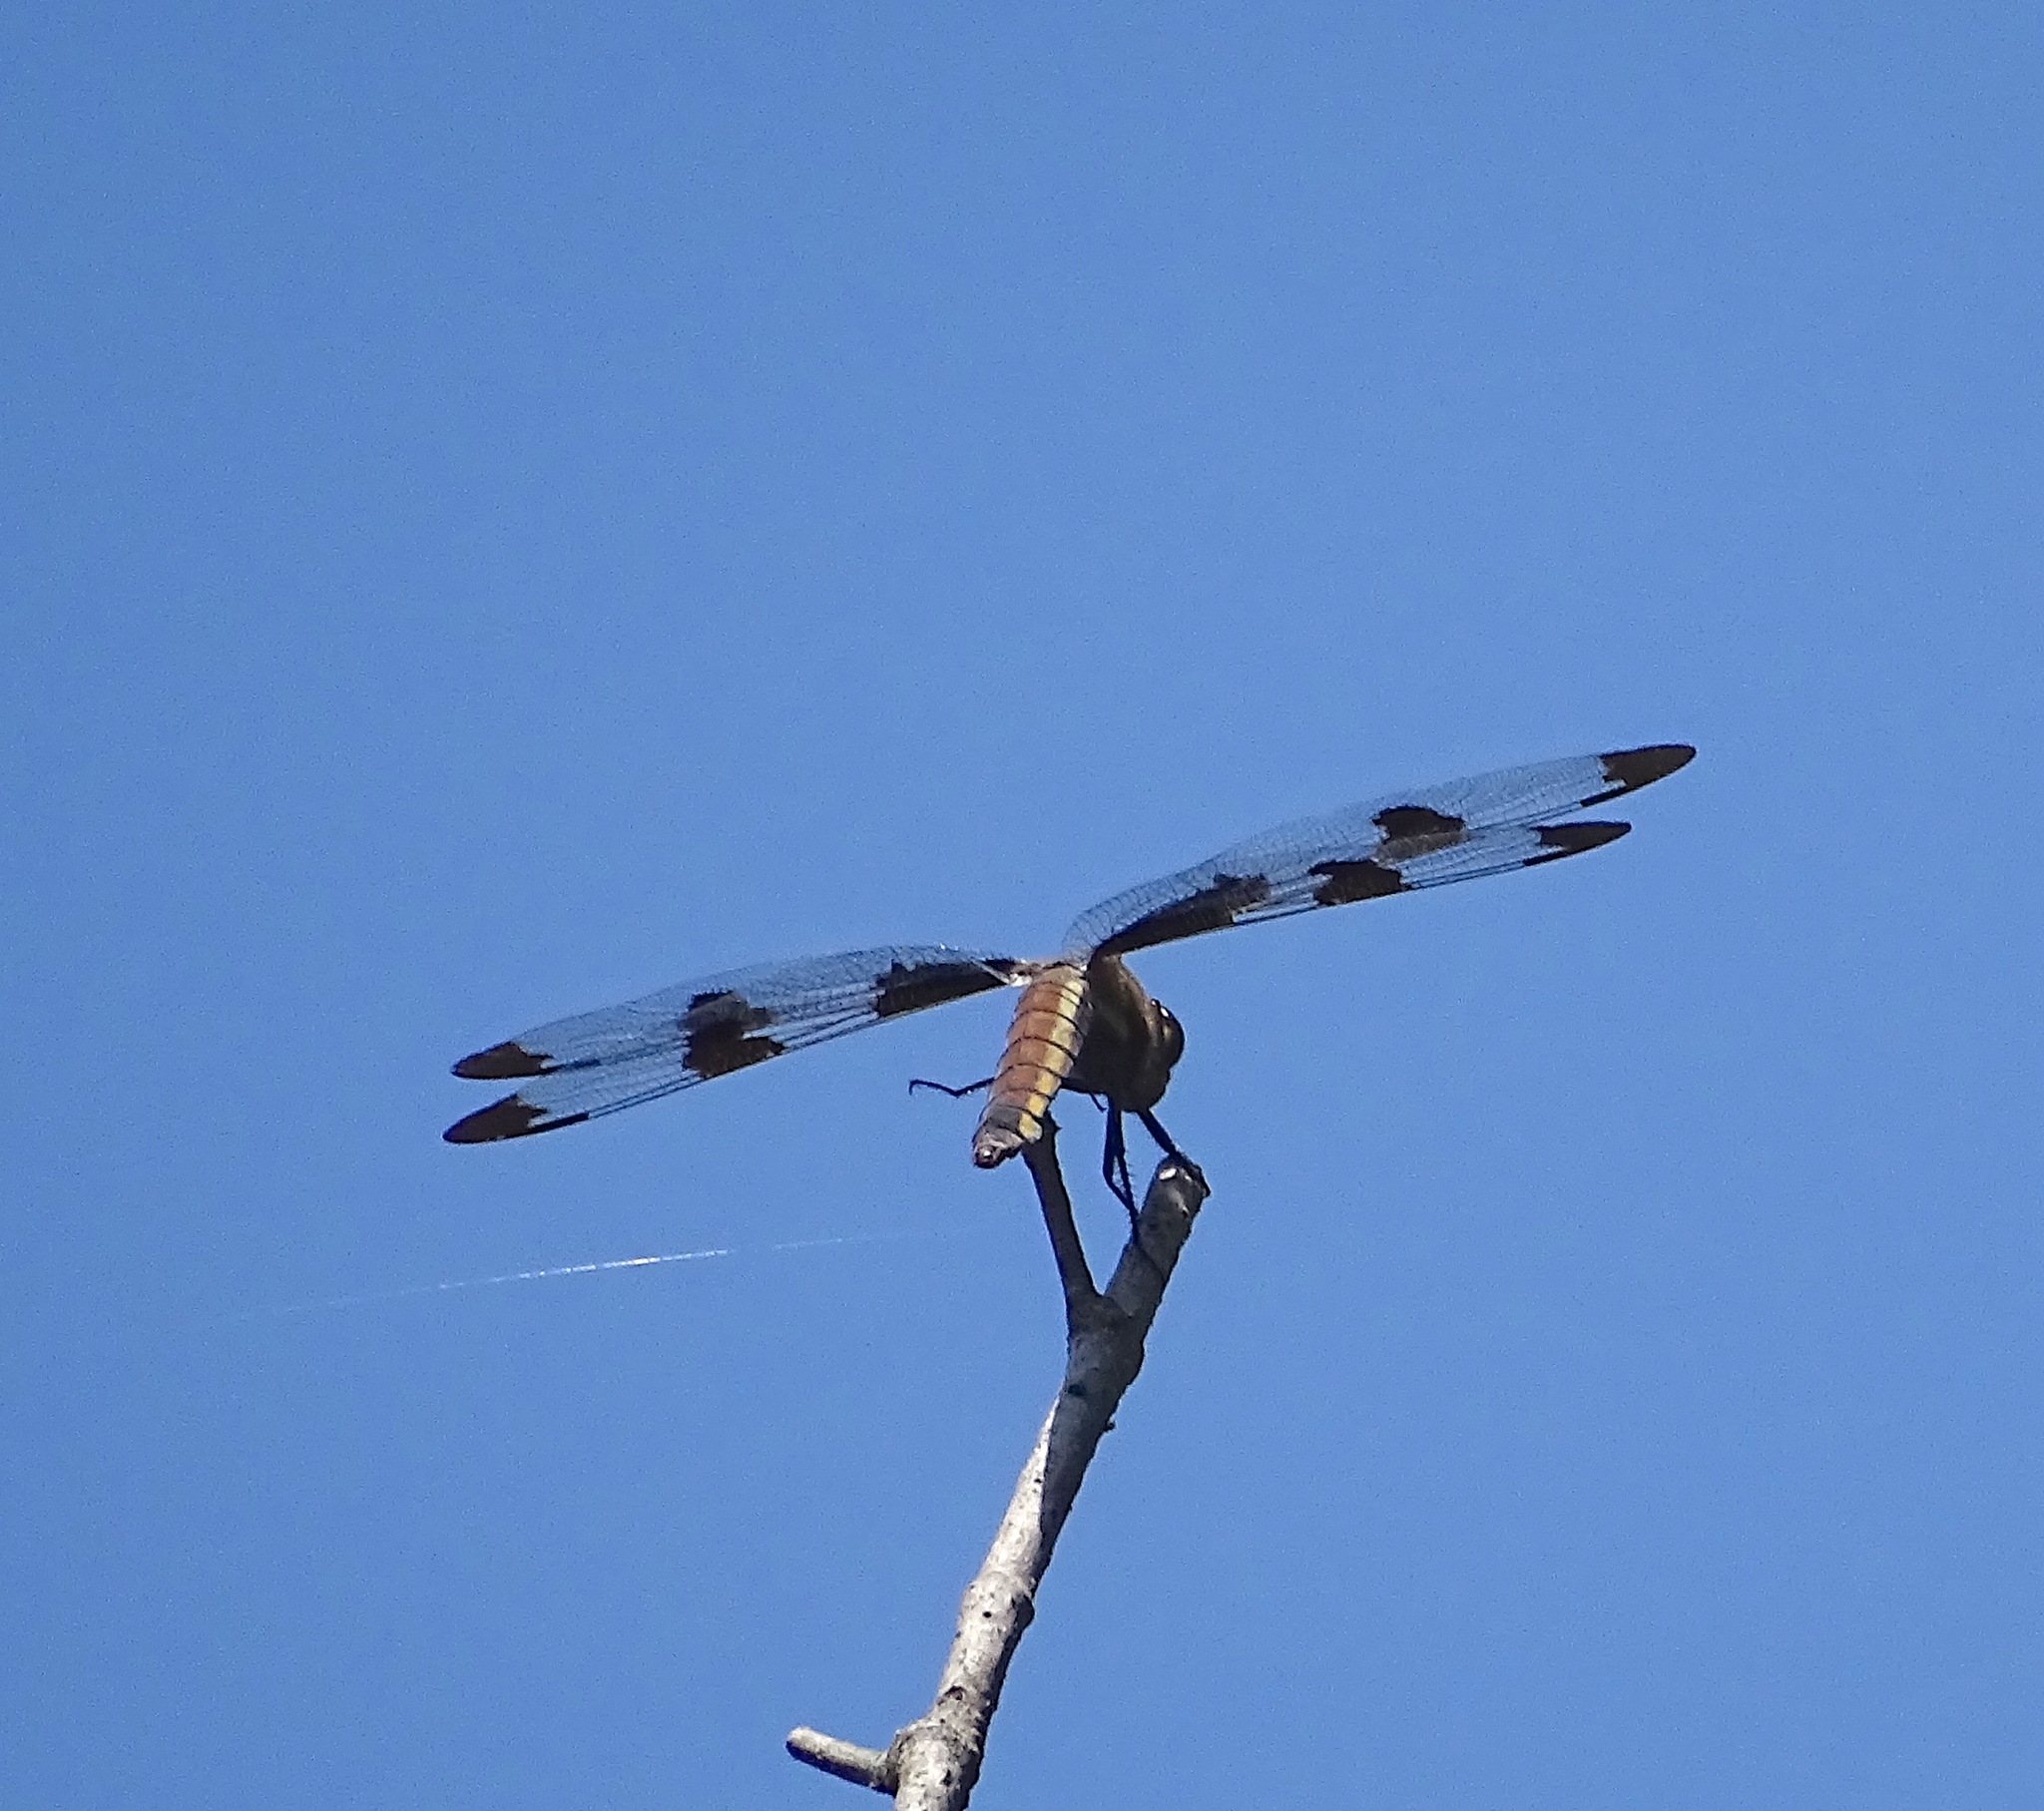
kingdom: Animalia
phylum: Arthropoda
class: Insecta
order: Odonata
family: Libellulidae
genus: Libellula
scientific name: Libellula pulchella
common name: Twelve-spotted skimmer
